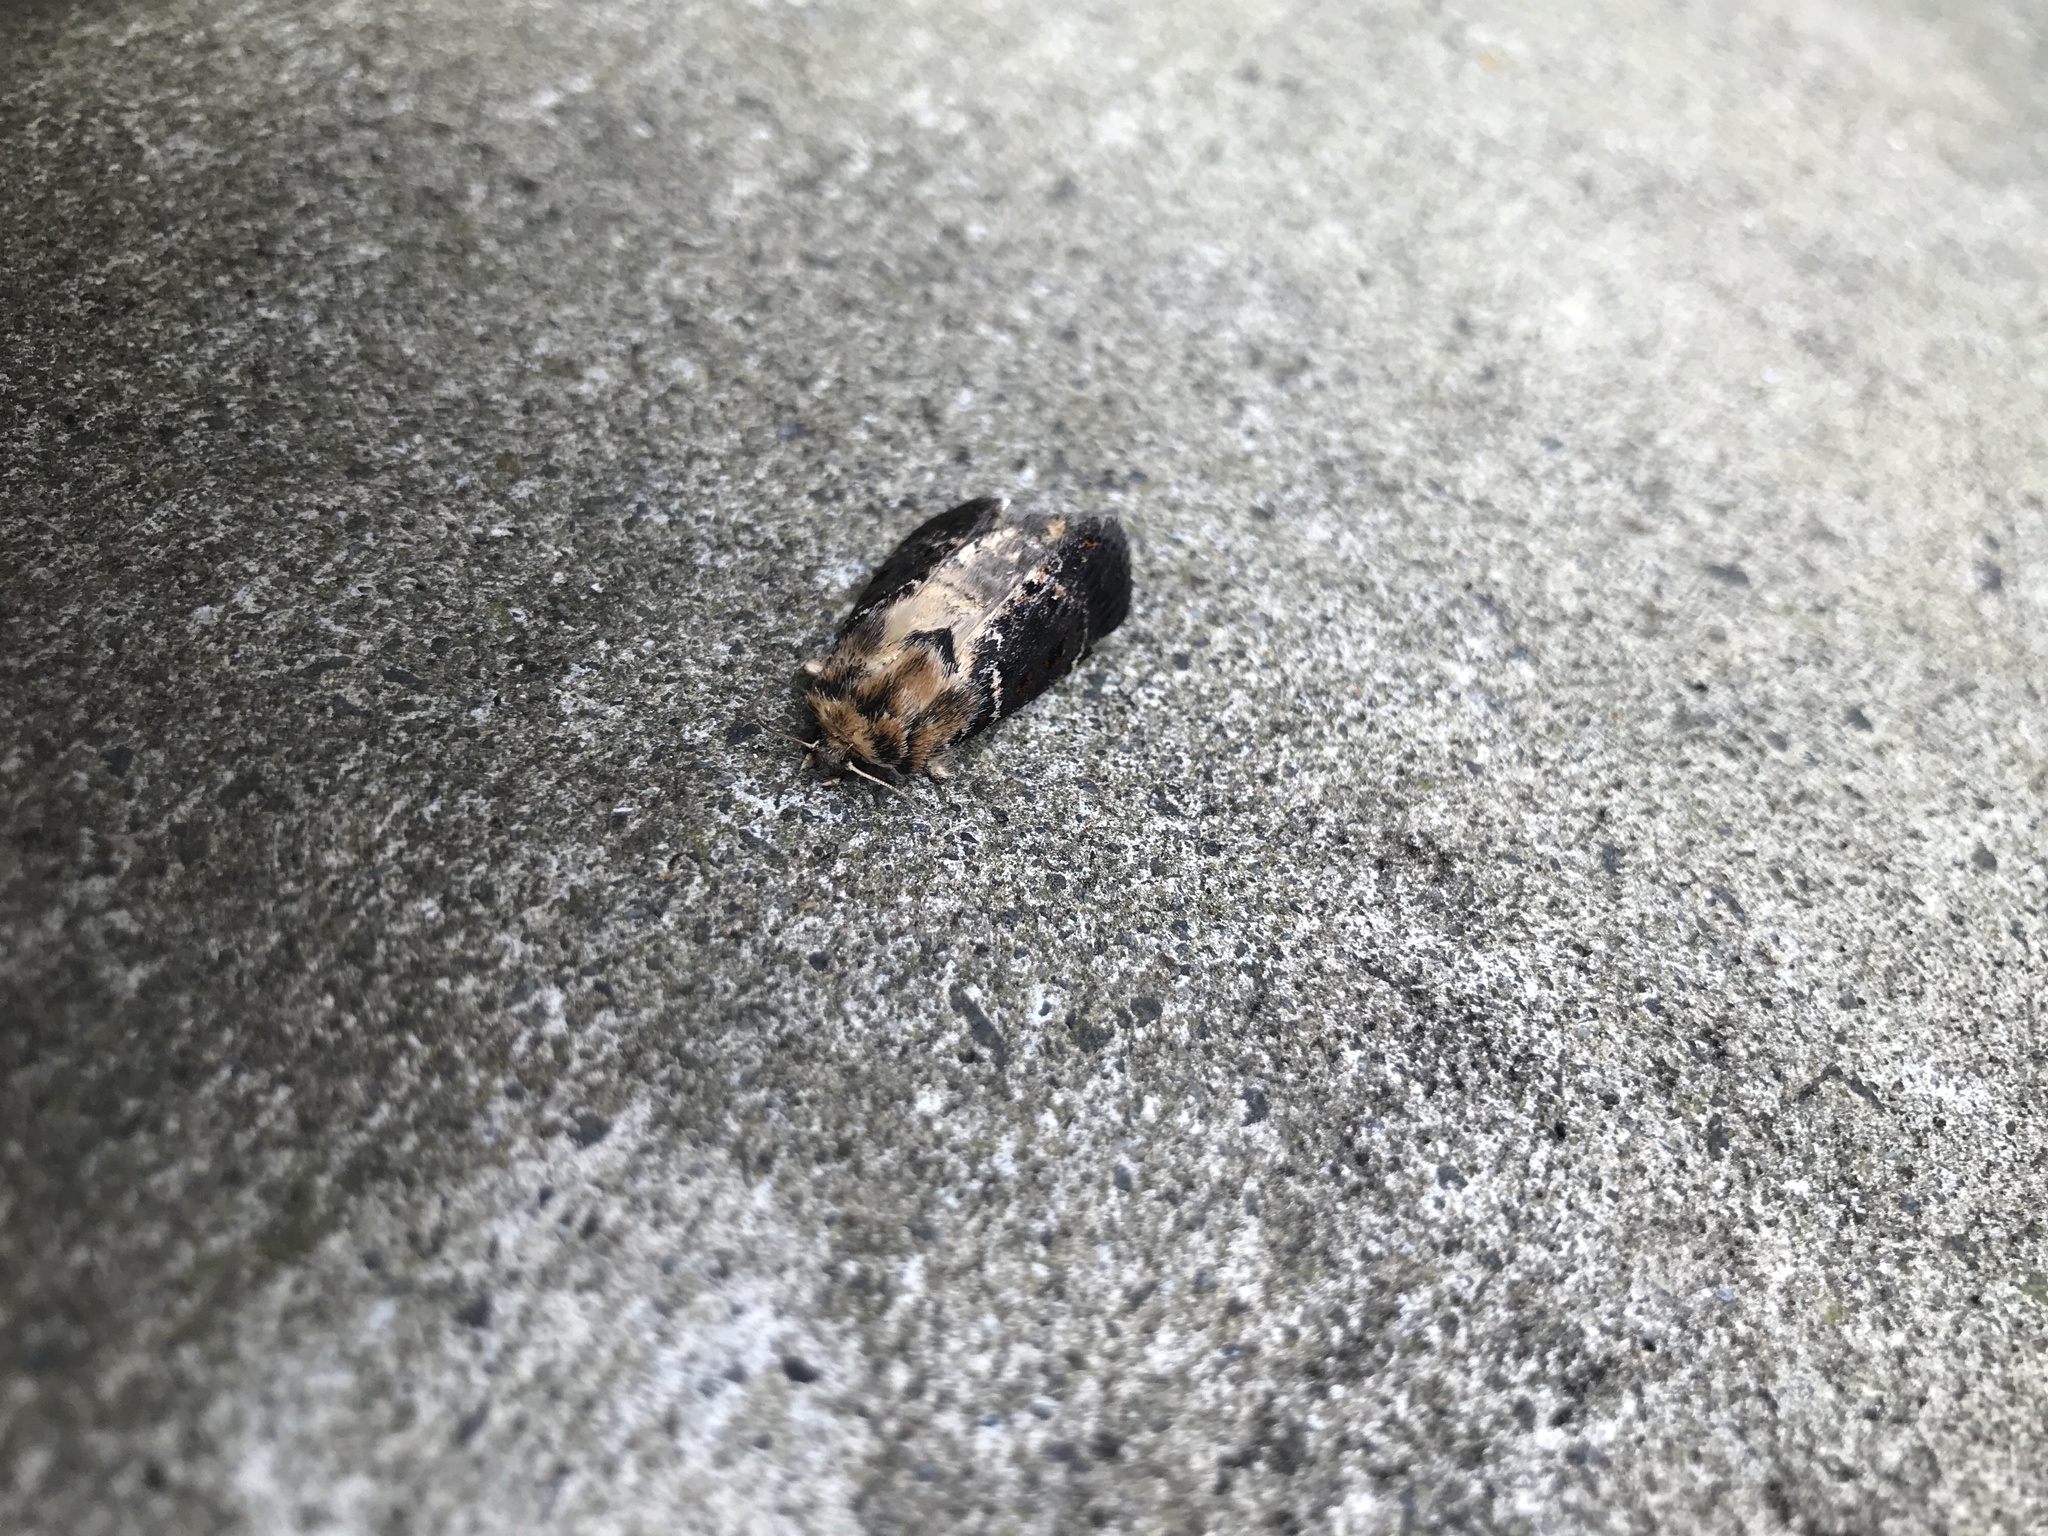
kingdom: Animalia
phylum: Arthropoda
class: Insecta
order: Lepidoptera
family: Noctuidae
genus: Proteuxoa
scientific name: Proteuxoa sanguinipuncta
